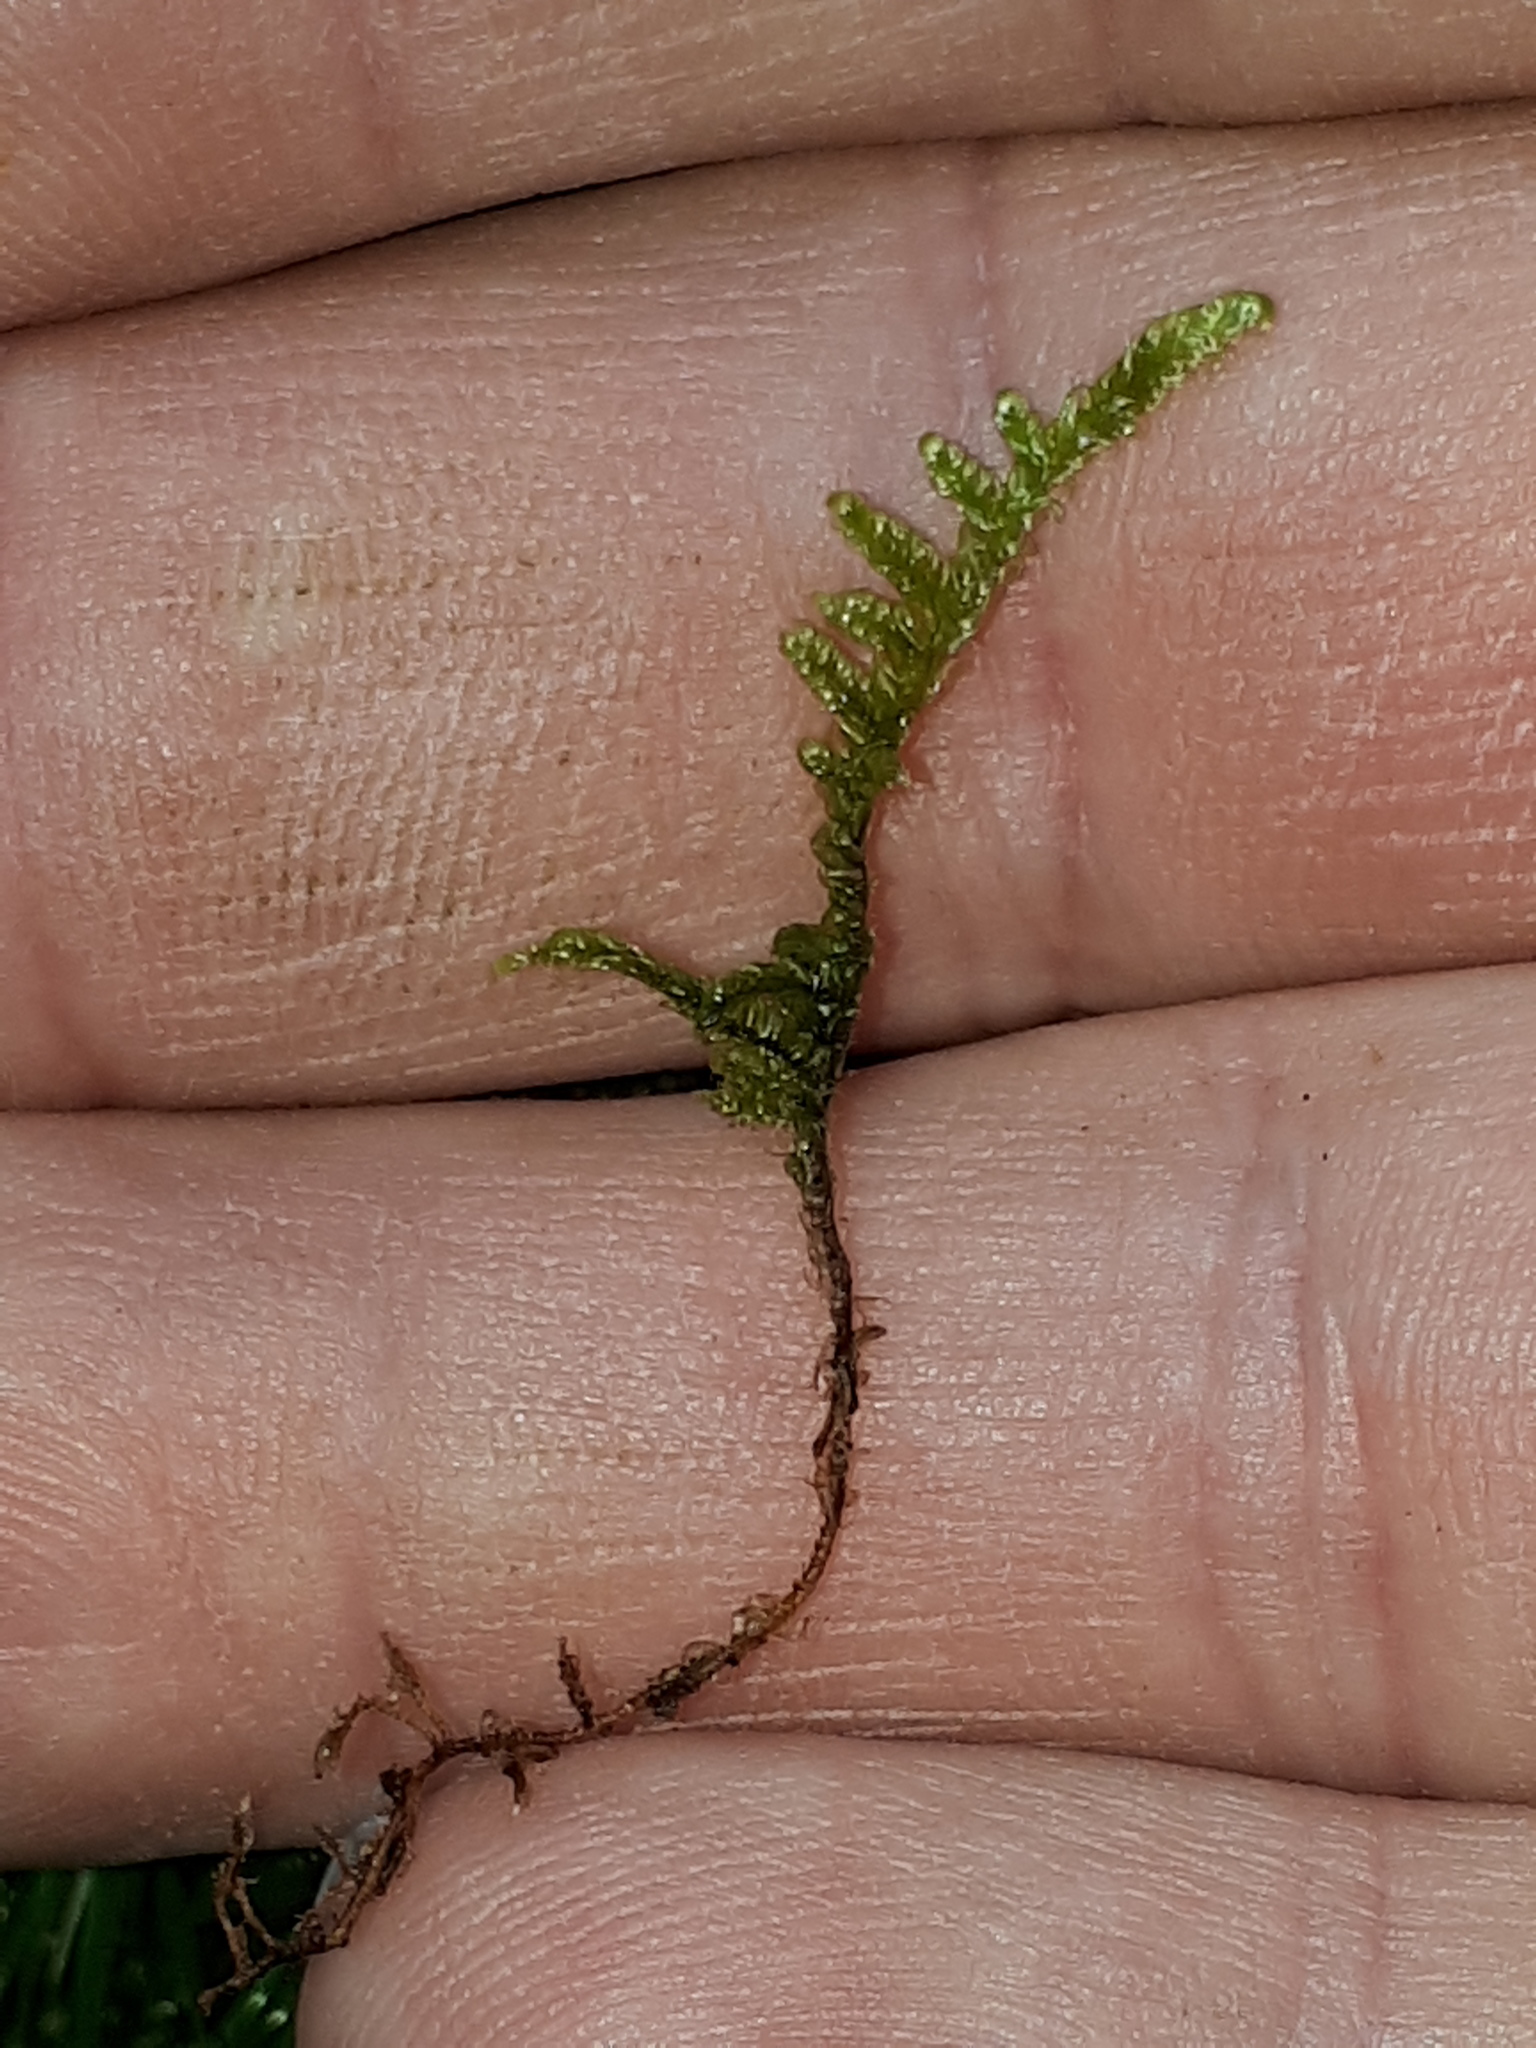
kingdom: Plantae
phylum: Bryophyta
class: Bryopsida
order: Hypnales
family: Hypnaceae
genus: Hypnum
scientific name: Hypnum cupressiforme
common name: Cypress-leaved plait-moss
